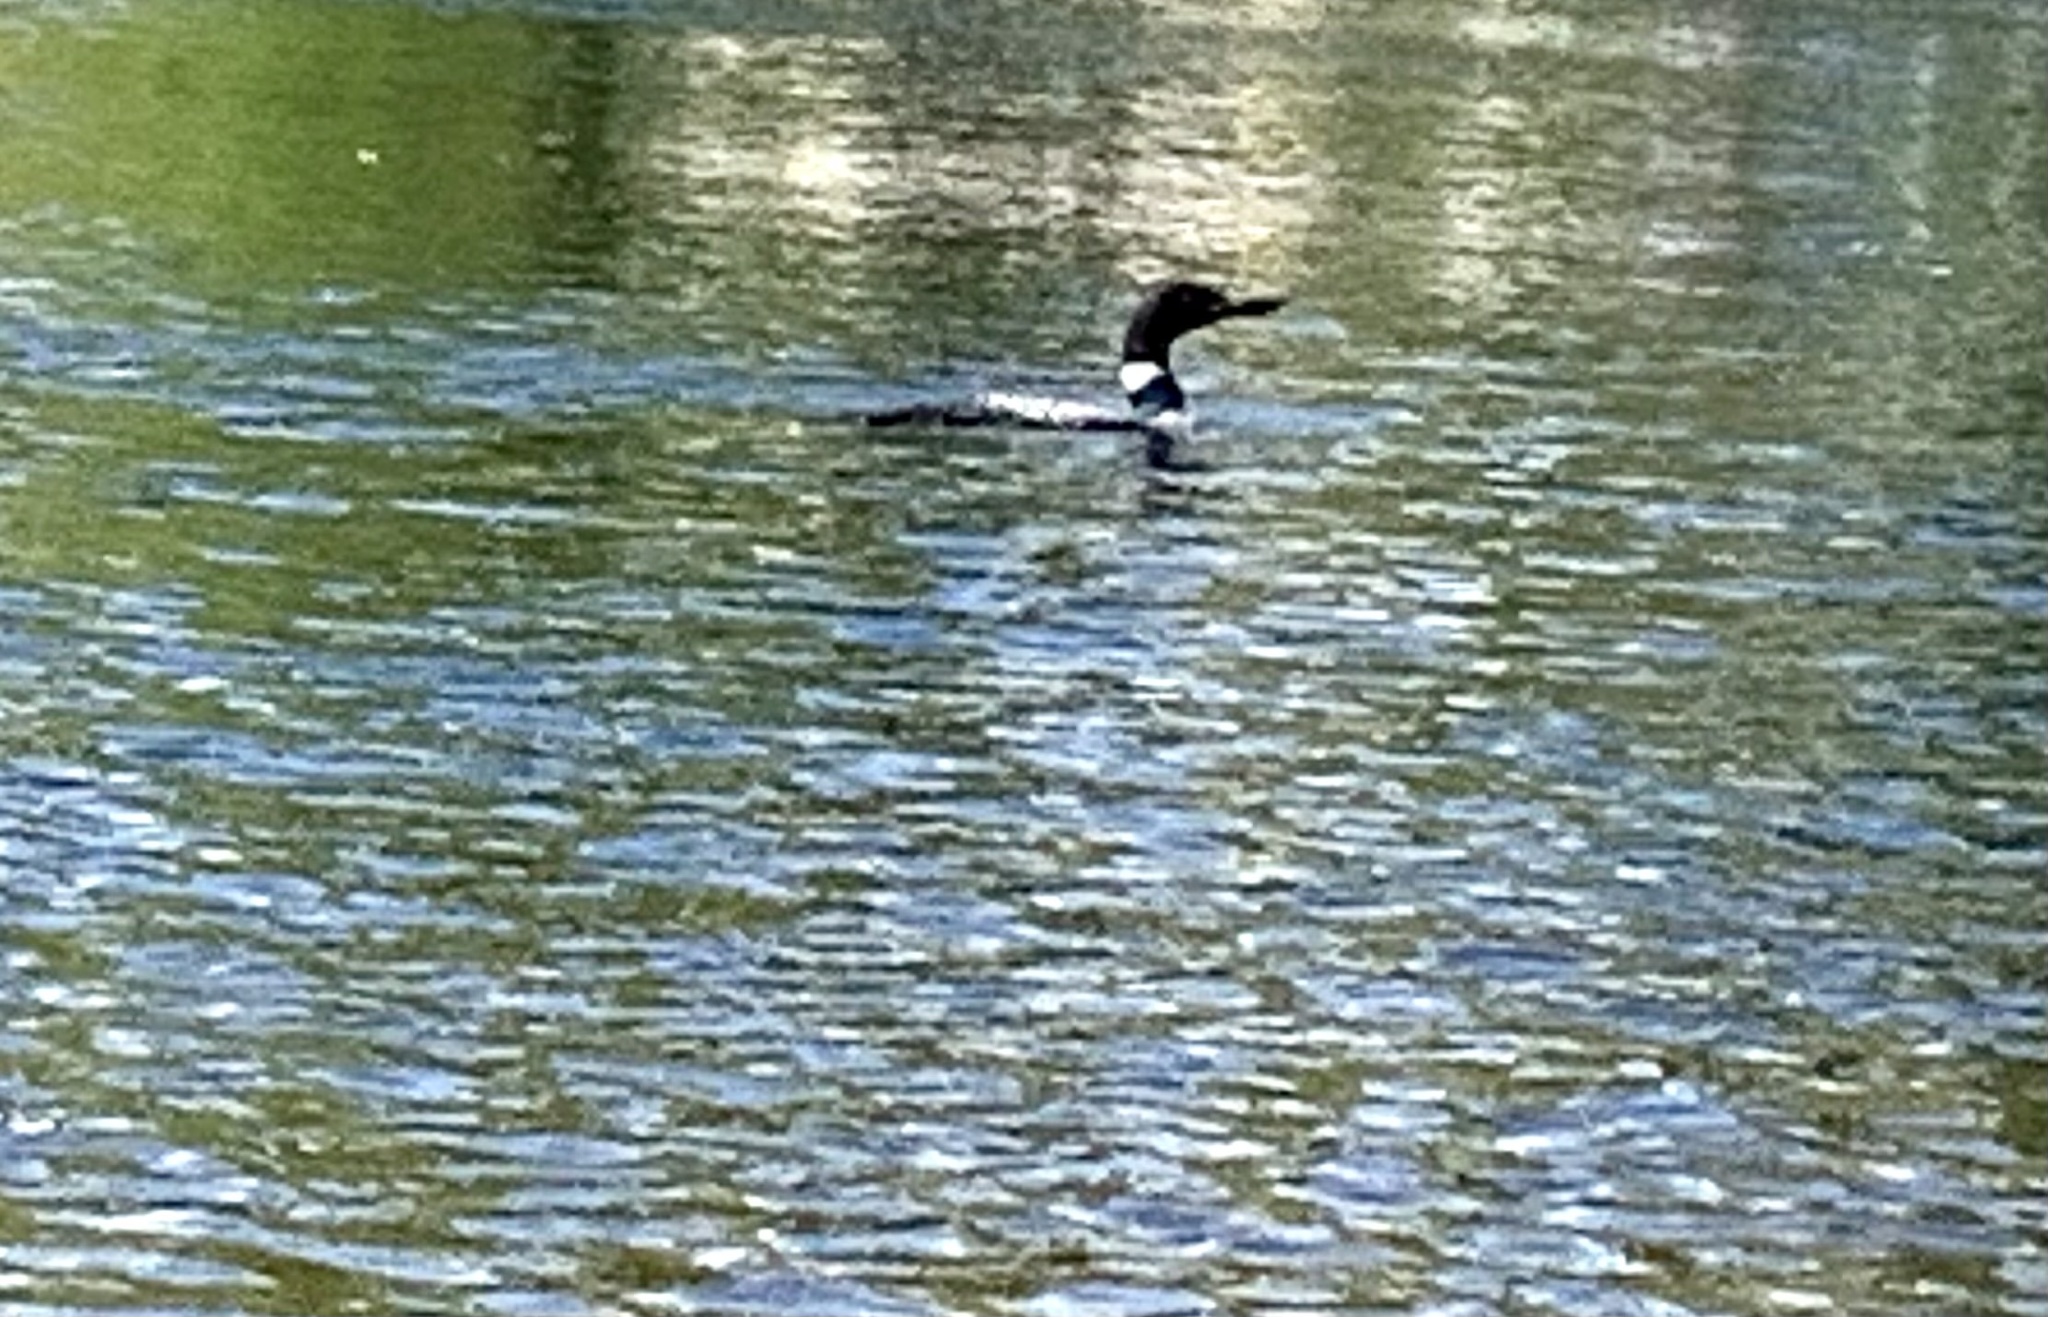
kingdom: Animalia
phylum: Chordata
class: Aves
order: Gaviiformes
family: Gaviidae
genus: Gavia
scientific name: Gavia immer
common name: Common loon
